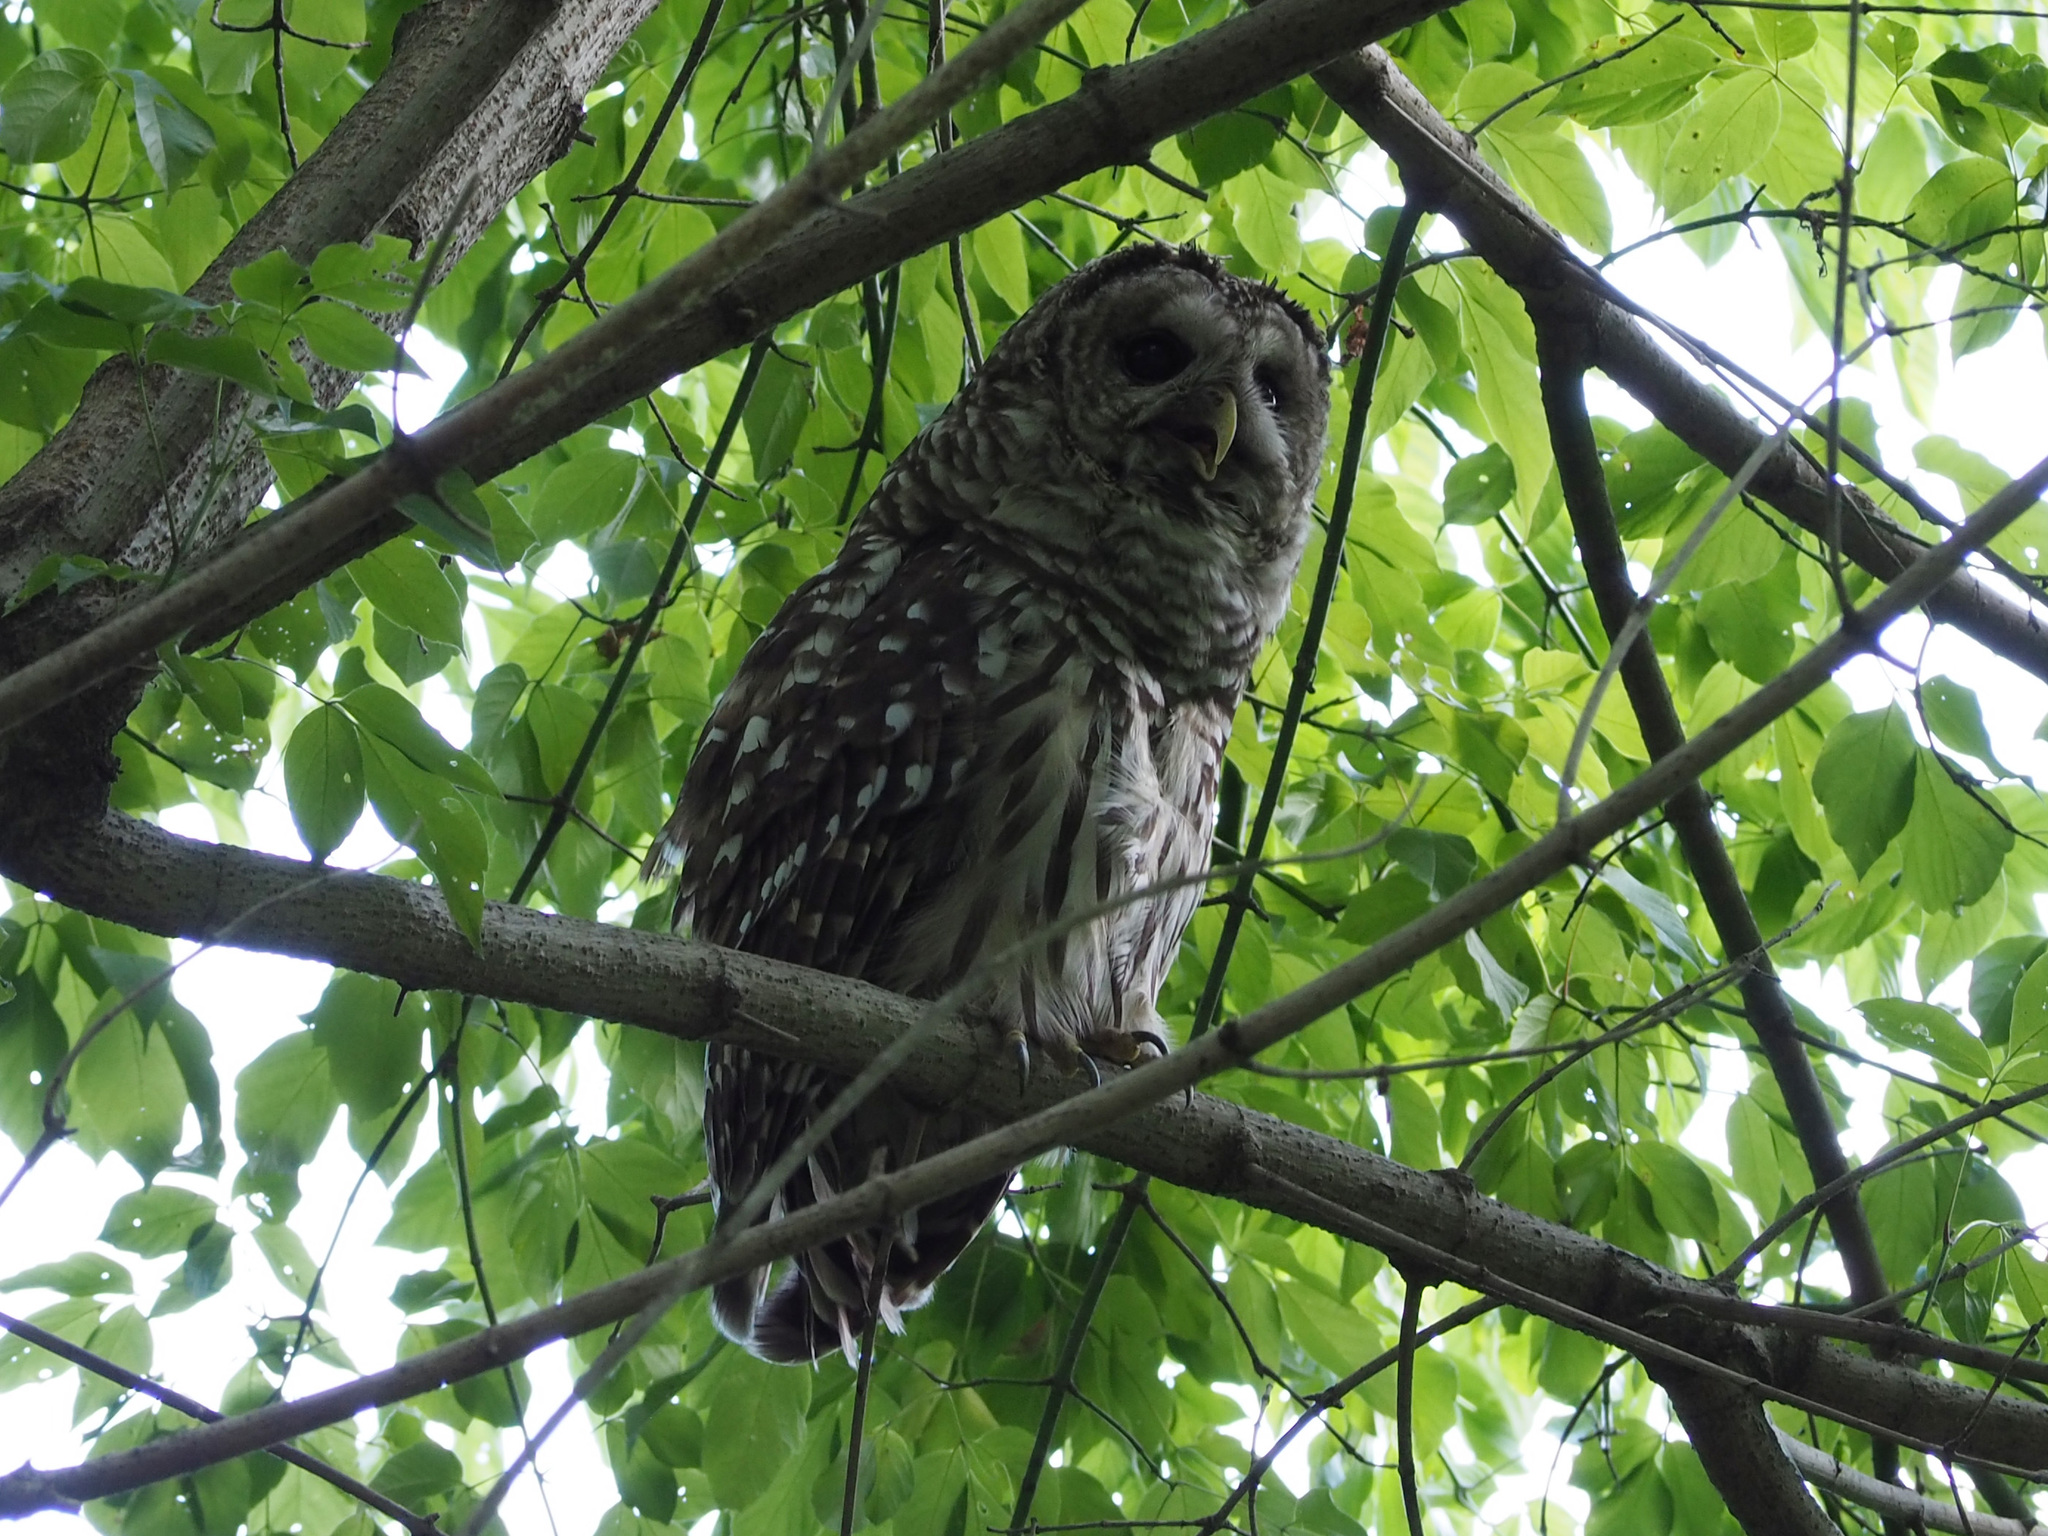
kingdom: Animalia
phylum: Chordata
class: Aves
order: Strigiformes
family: Strigidae
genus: Strix
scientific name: Strix varia
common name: Barred owl
